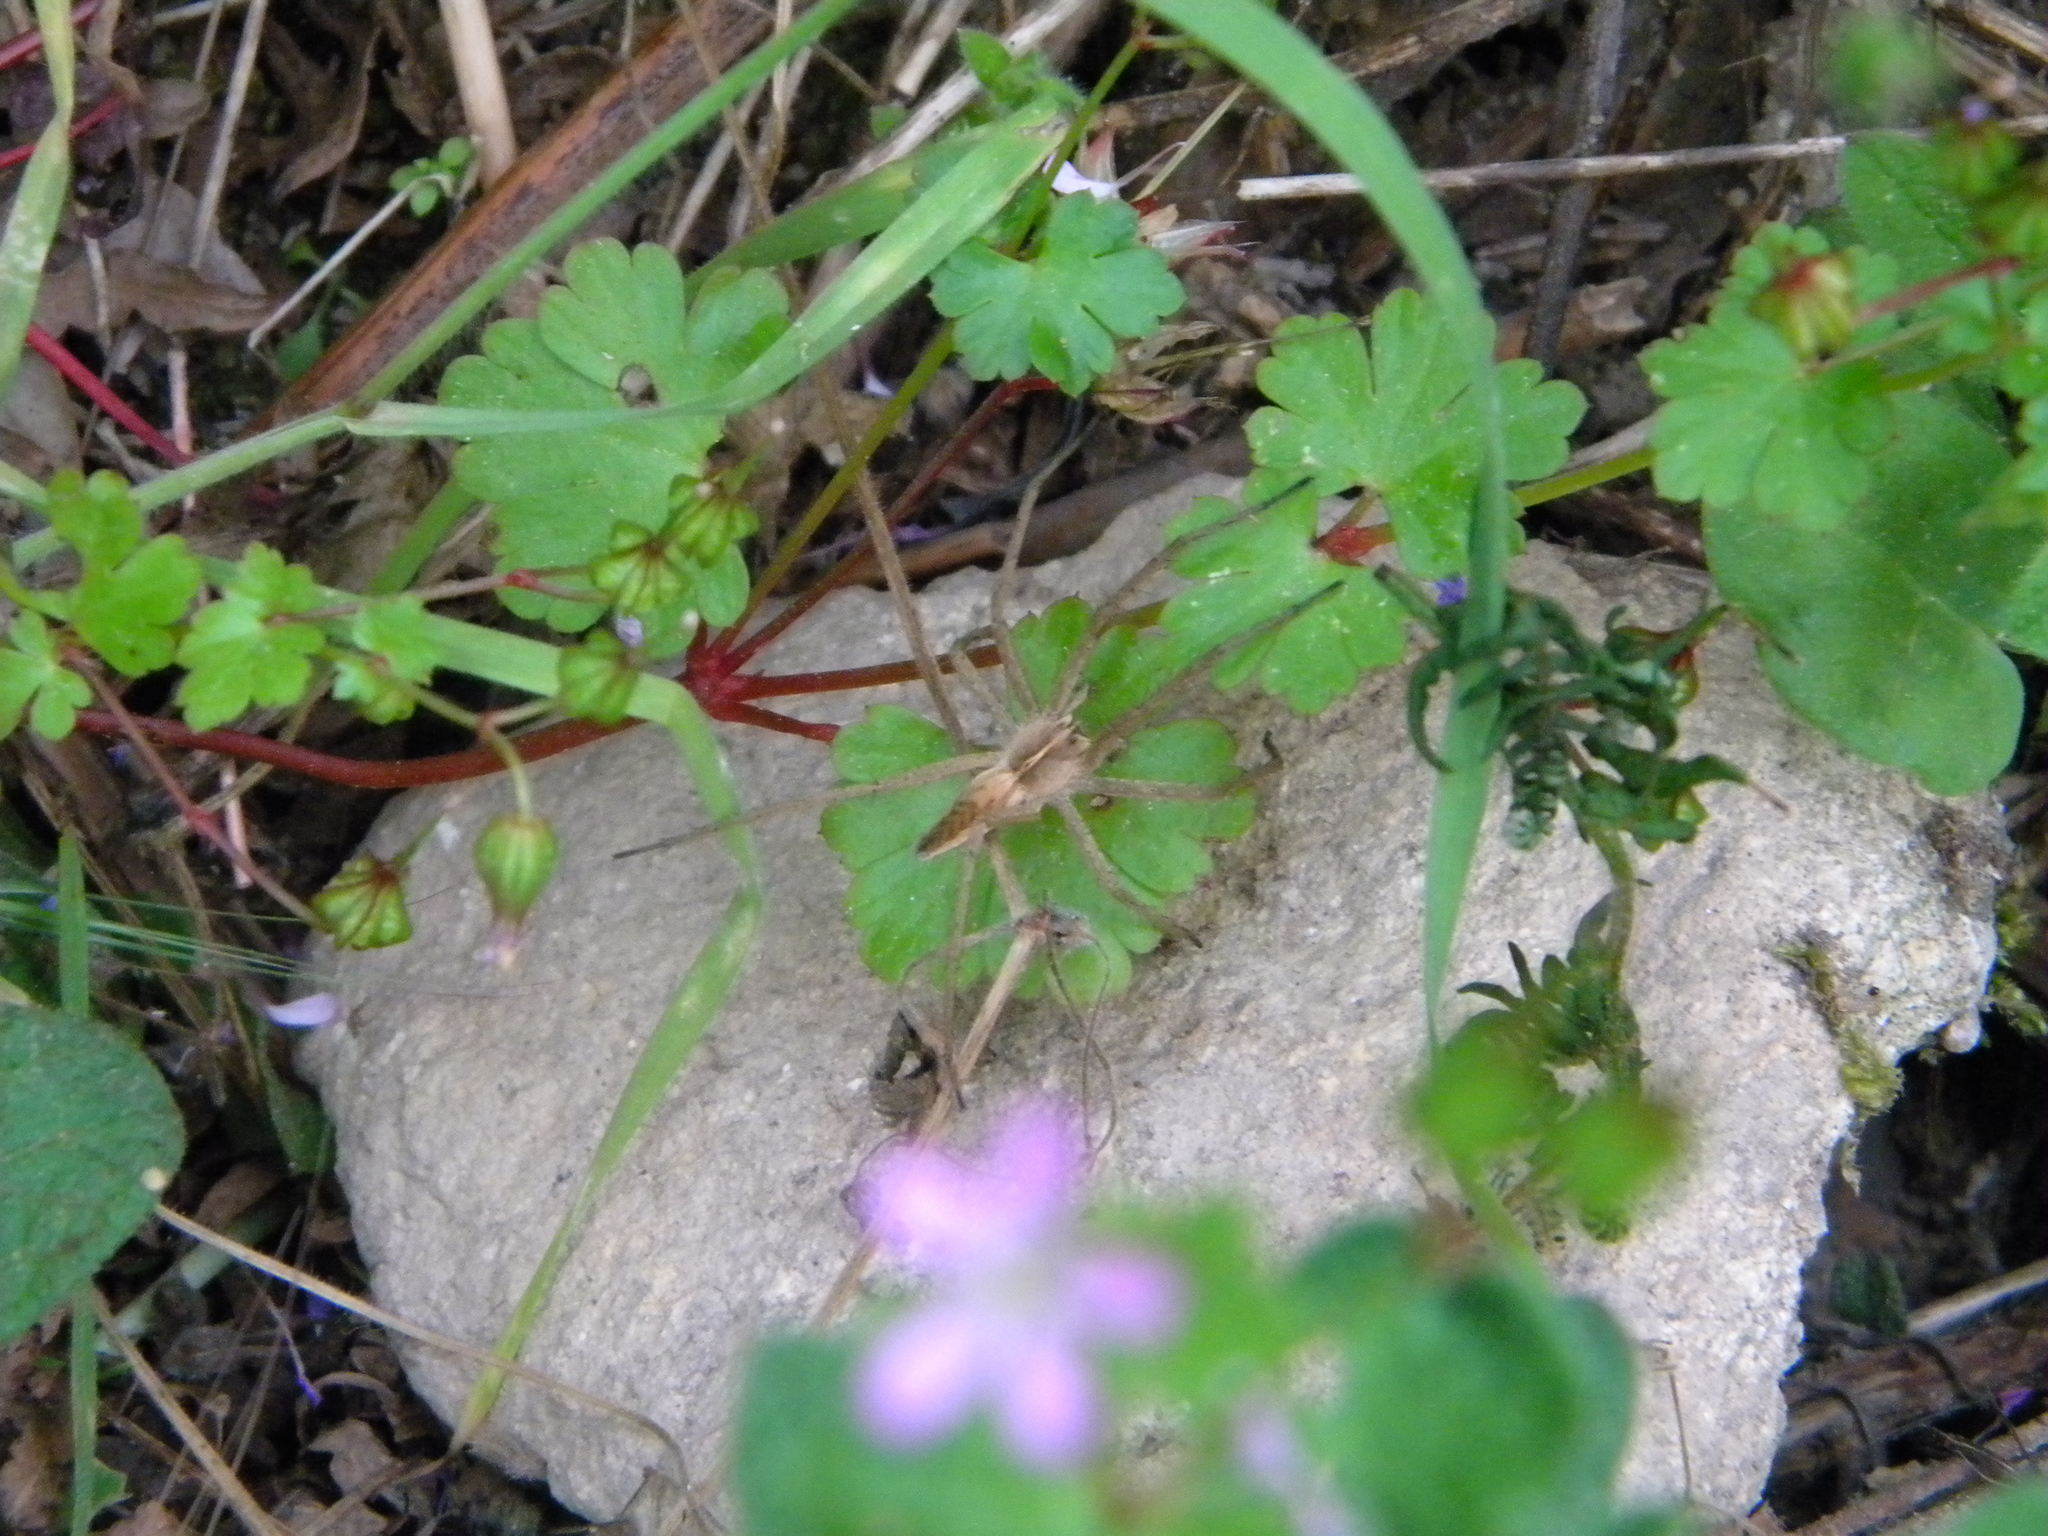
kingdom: Animalia
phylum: Arthropoda
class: Arachnida
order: Araneae
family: Pisauridae
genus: Pisaura
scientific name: Pisaura mirabilis
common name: Tent spider
